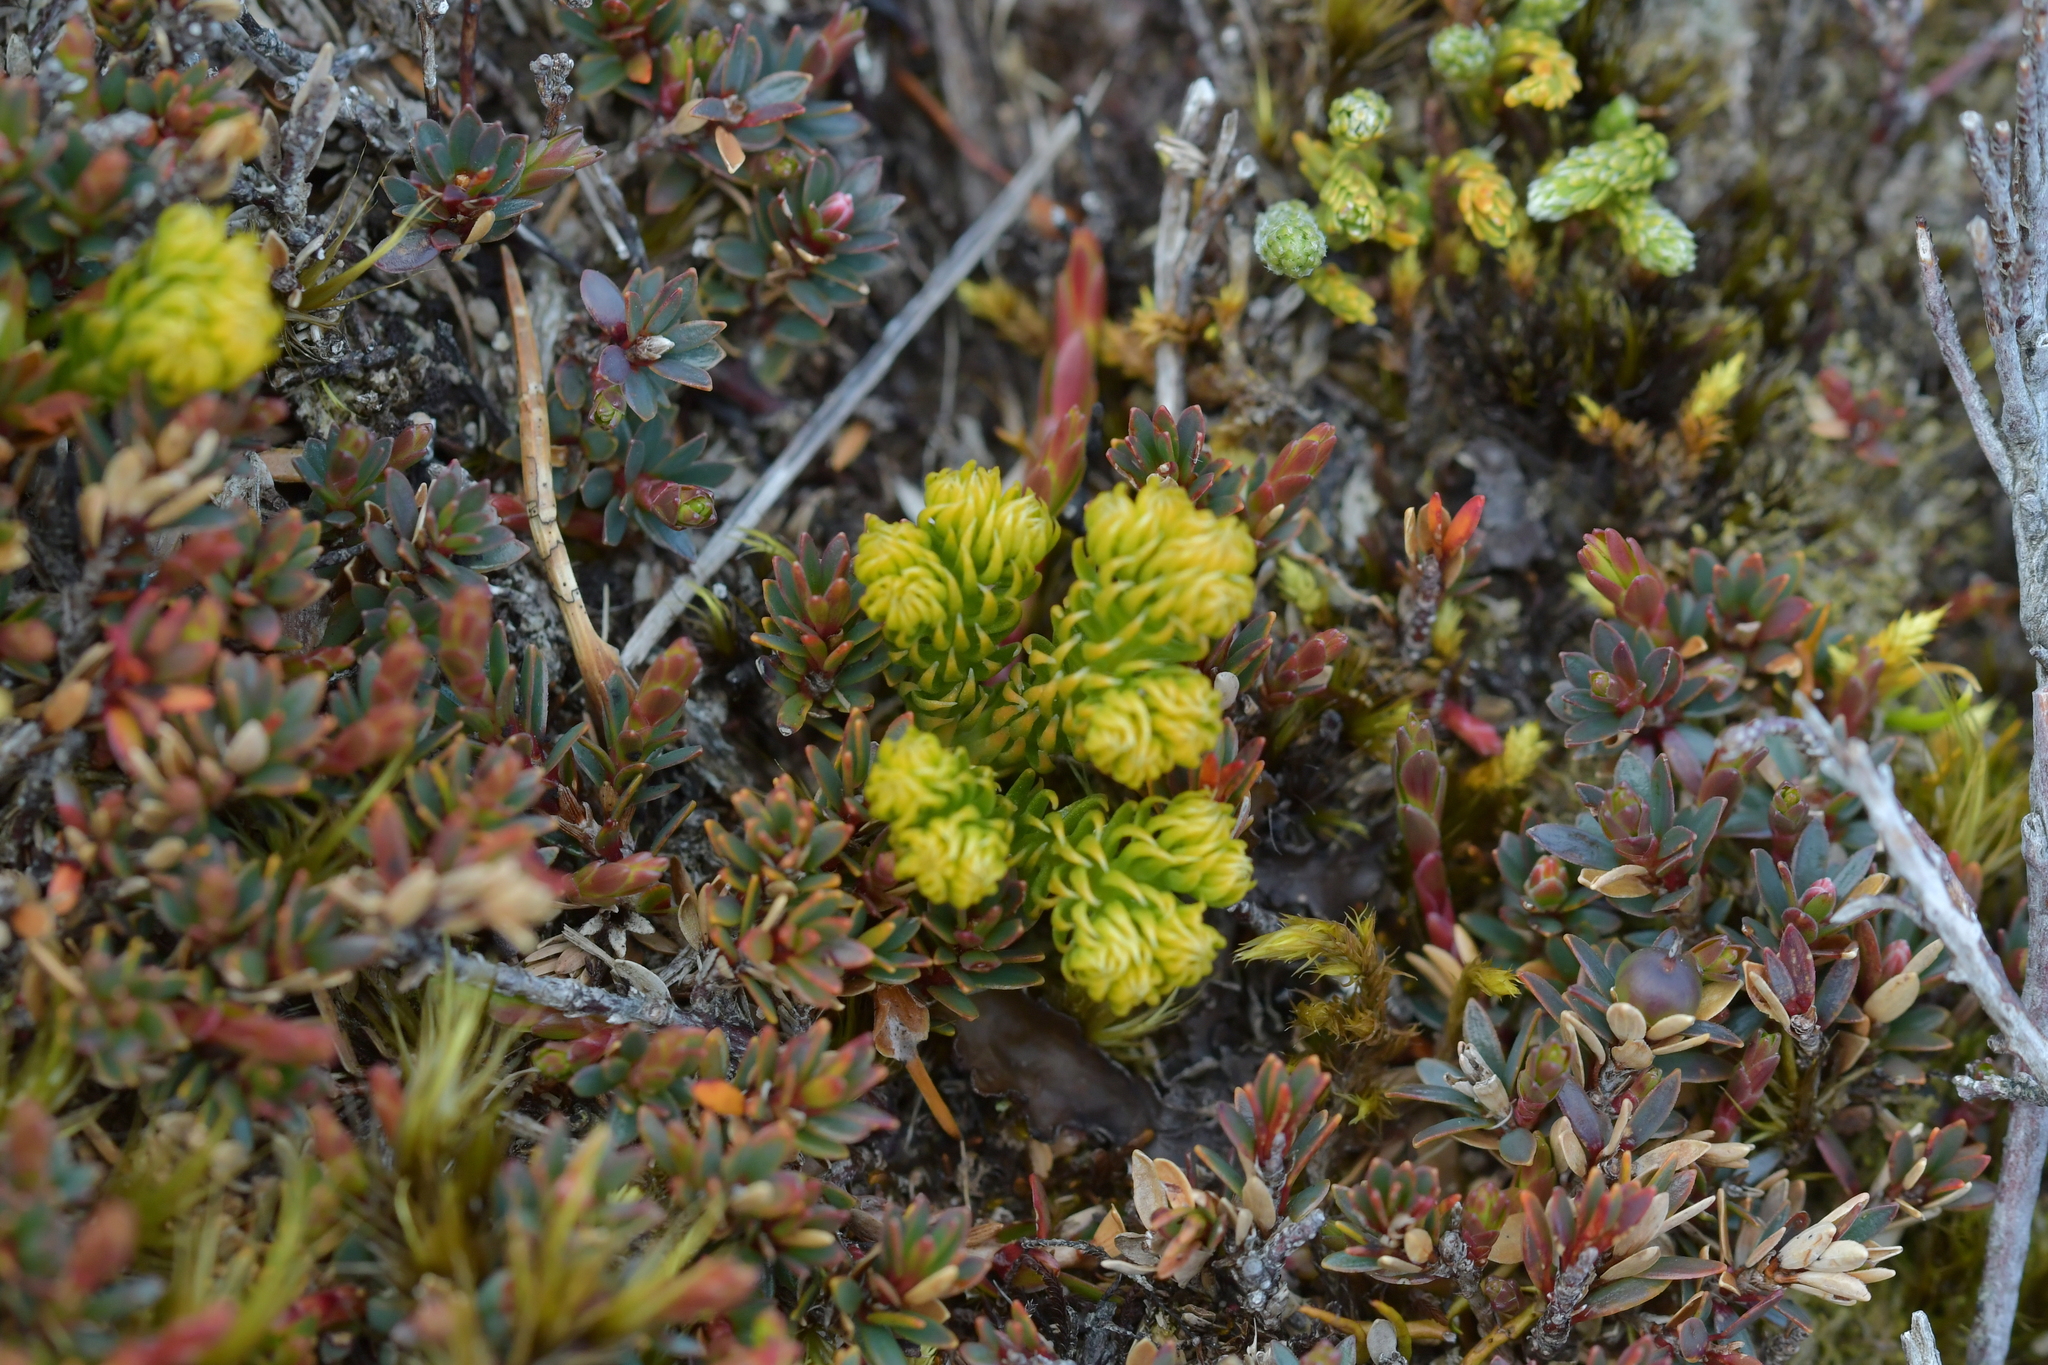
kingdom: Plantae
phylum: Tracheophyta
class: Lycopodiopsida
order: Lycopodiales
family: Lycopodiaceae
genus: Austrolycopodium
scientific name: Austrolycopodium fastigiatum
